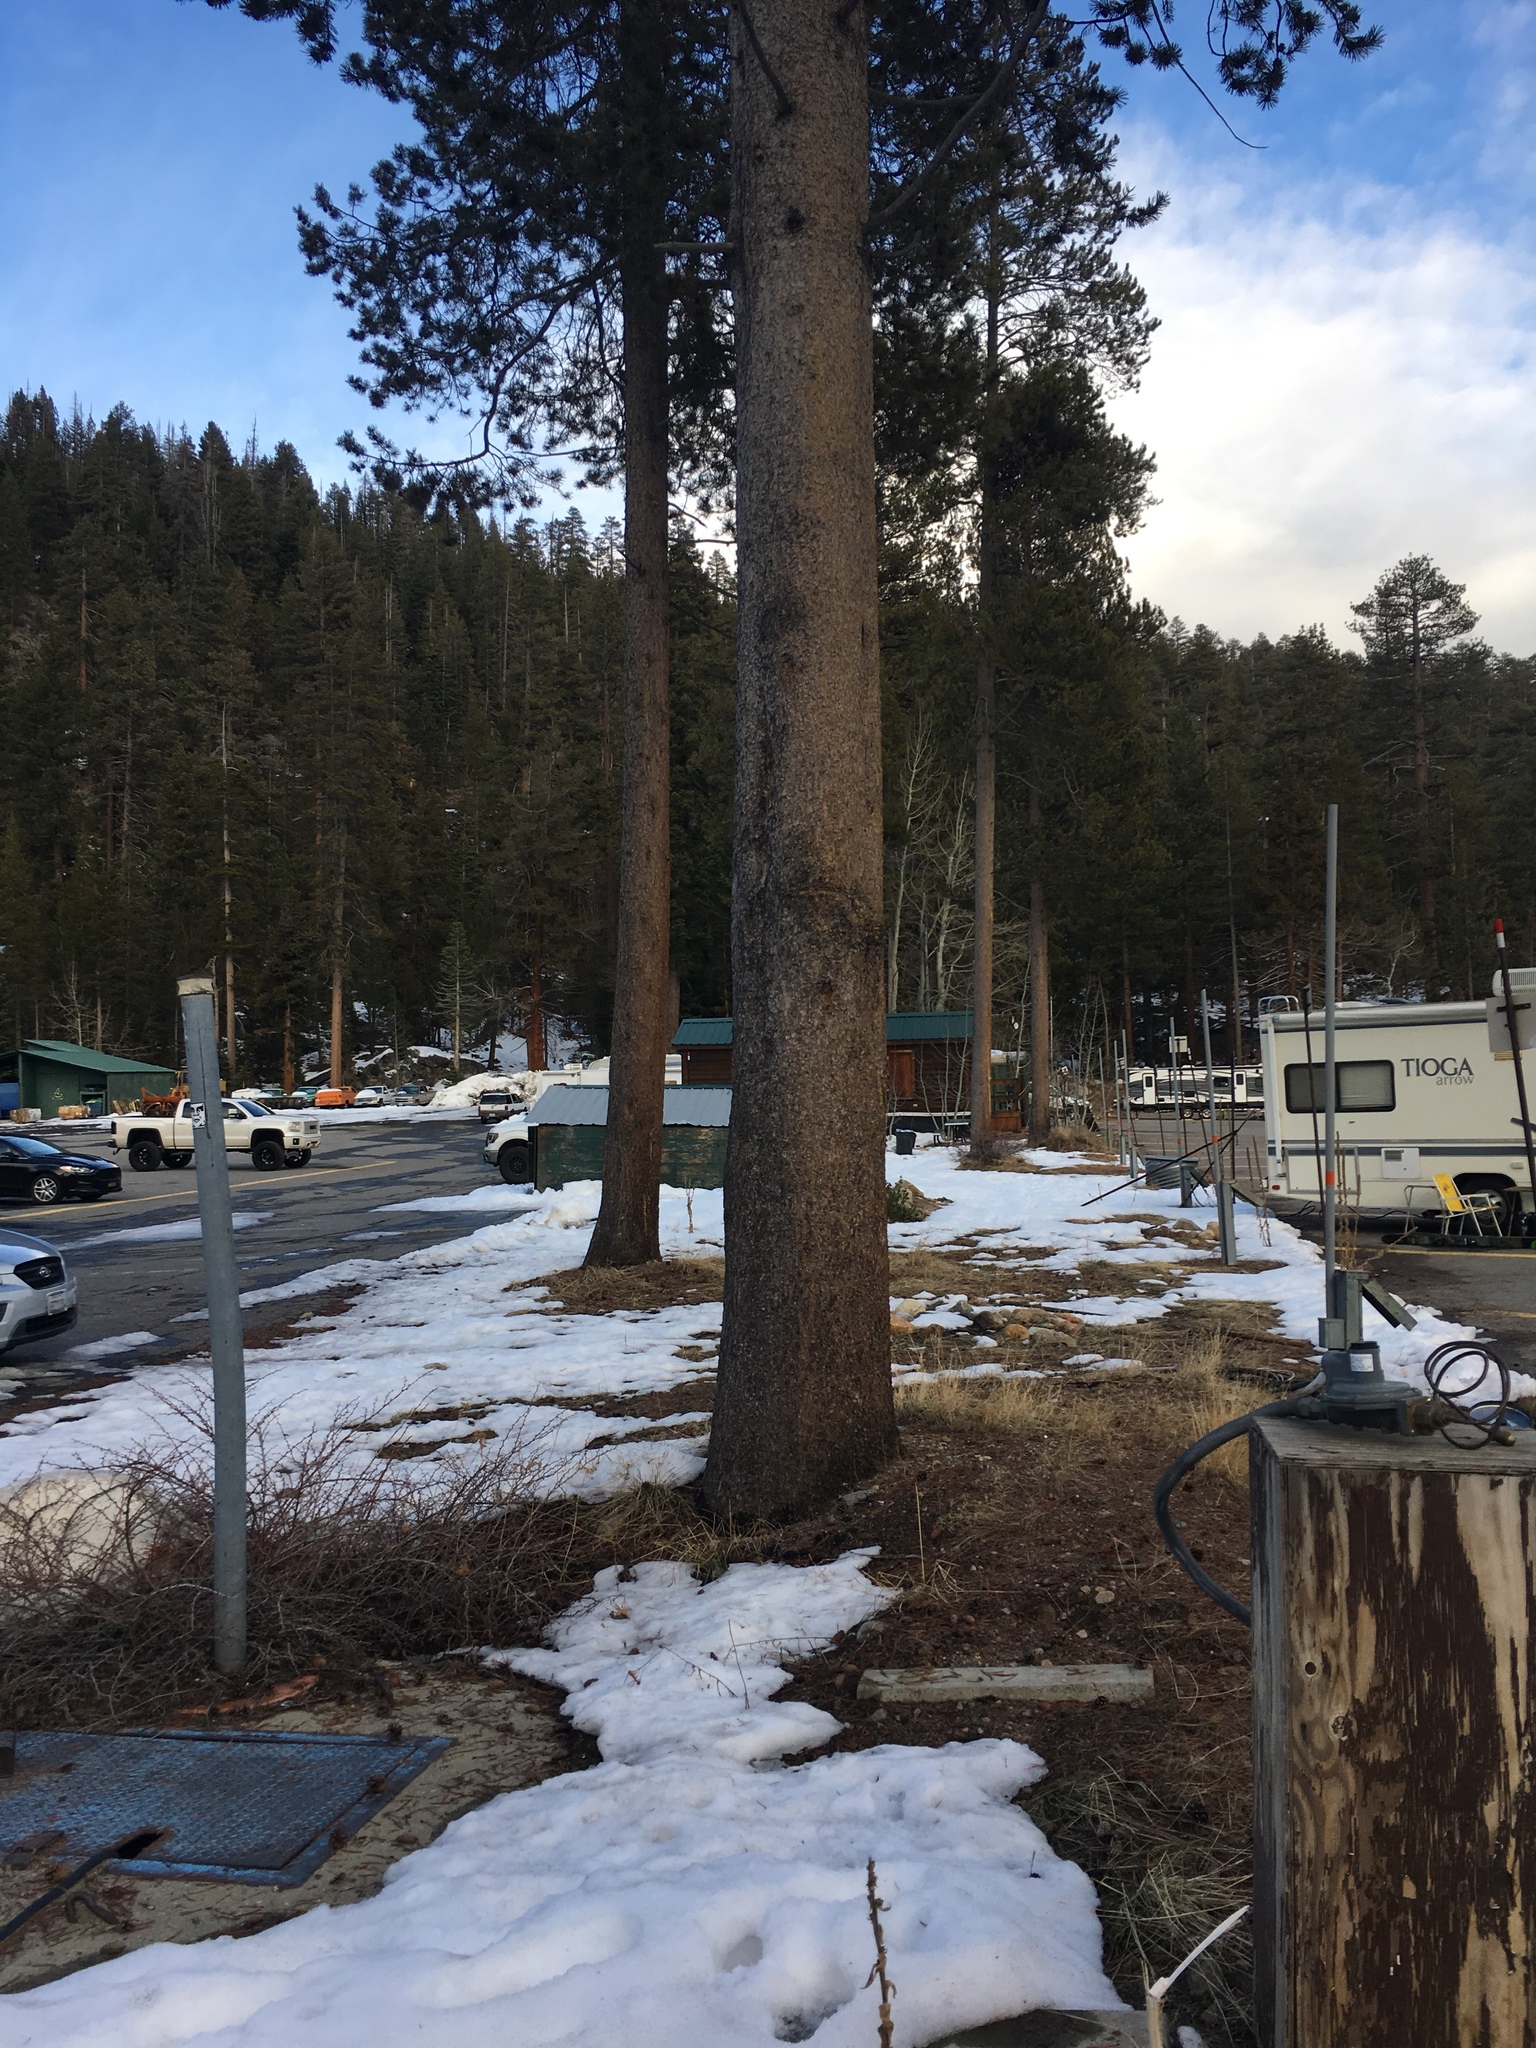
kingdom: Plantae
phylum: Tracheophyta
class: Pinopsida
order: Pinales
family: Pinaceae
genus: Pinus
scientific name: Pinus contorta
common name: Lodgepole pine
